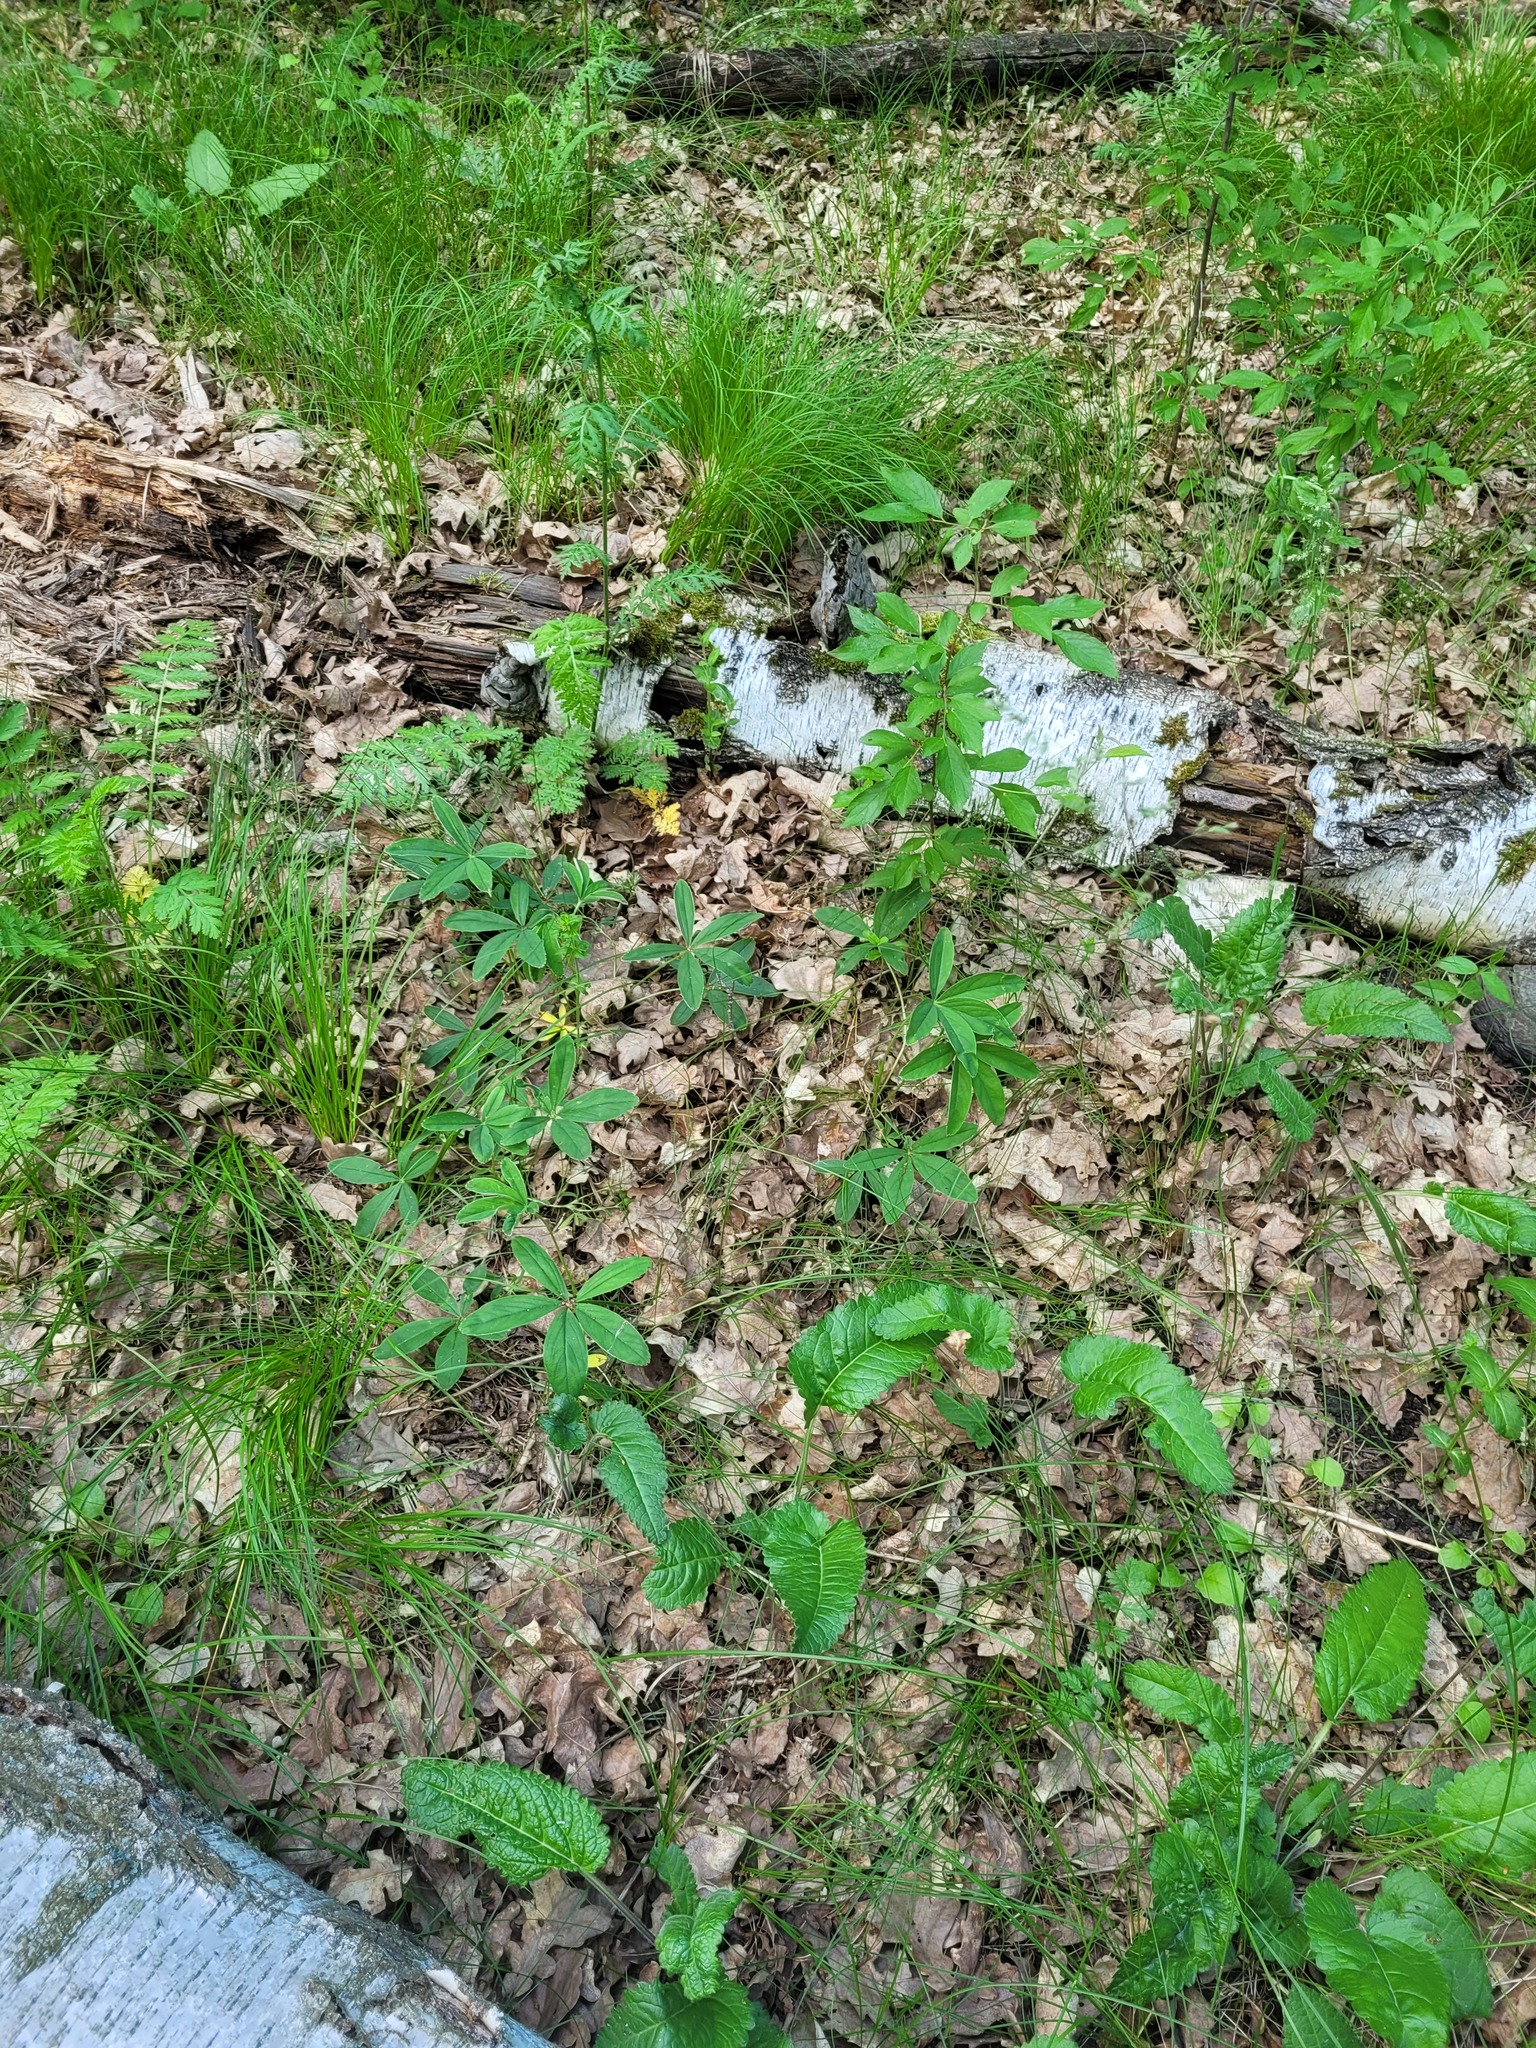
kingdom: Plantae
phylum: Tracheophyta
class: Magnoliopsida
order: Rosales
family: Rosaceae
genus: Potentilla
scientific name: Potentilla alba
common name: White cinquefoil
